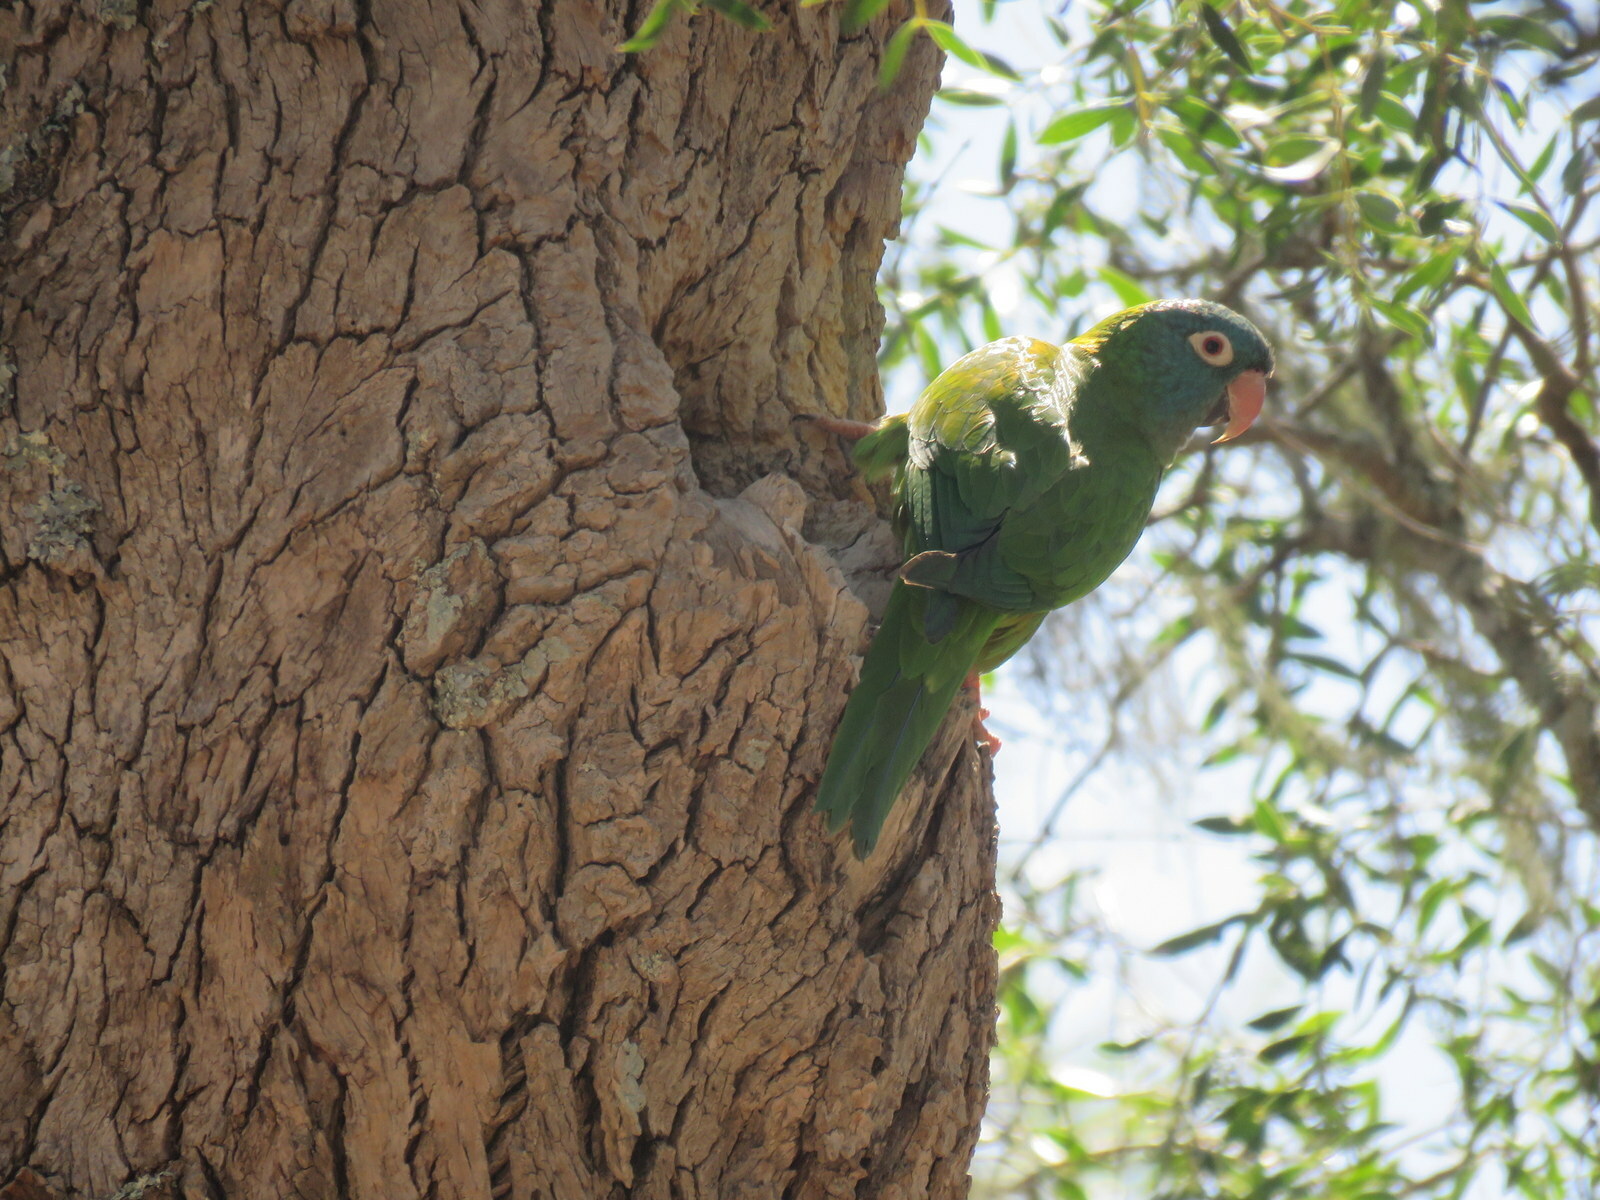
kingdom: Animalia
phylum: Chordata
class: Aves
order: Psittaciformes
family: Psittacidae
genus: Aratinga
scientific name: Aratinga acuticaudata
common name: Blue-crowned parakeet
